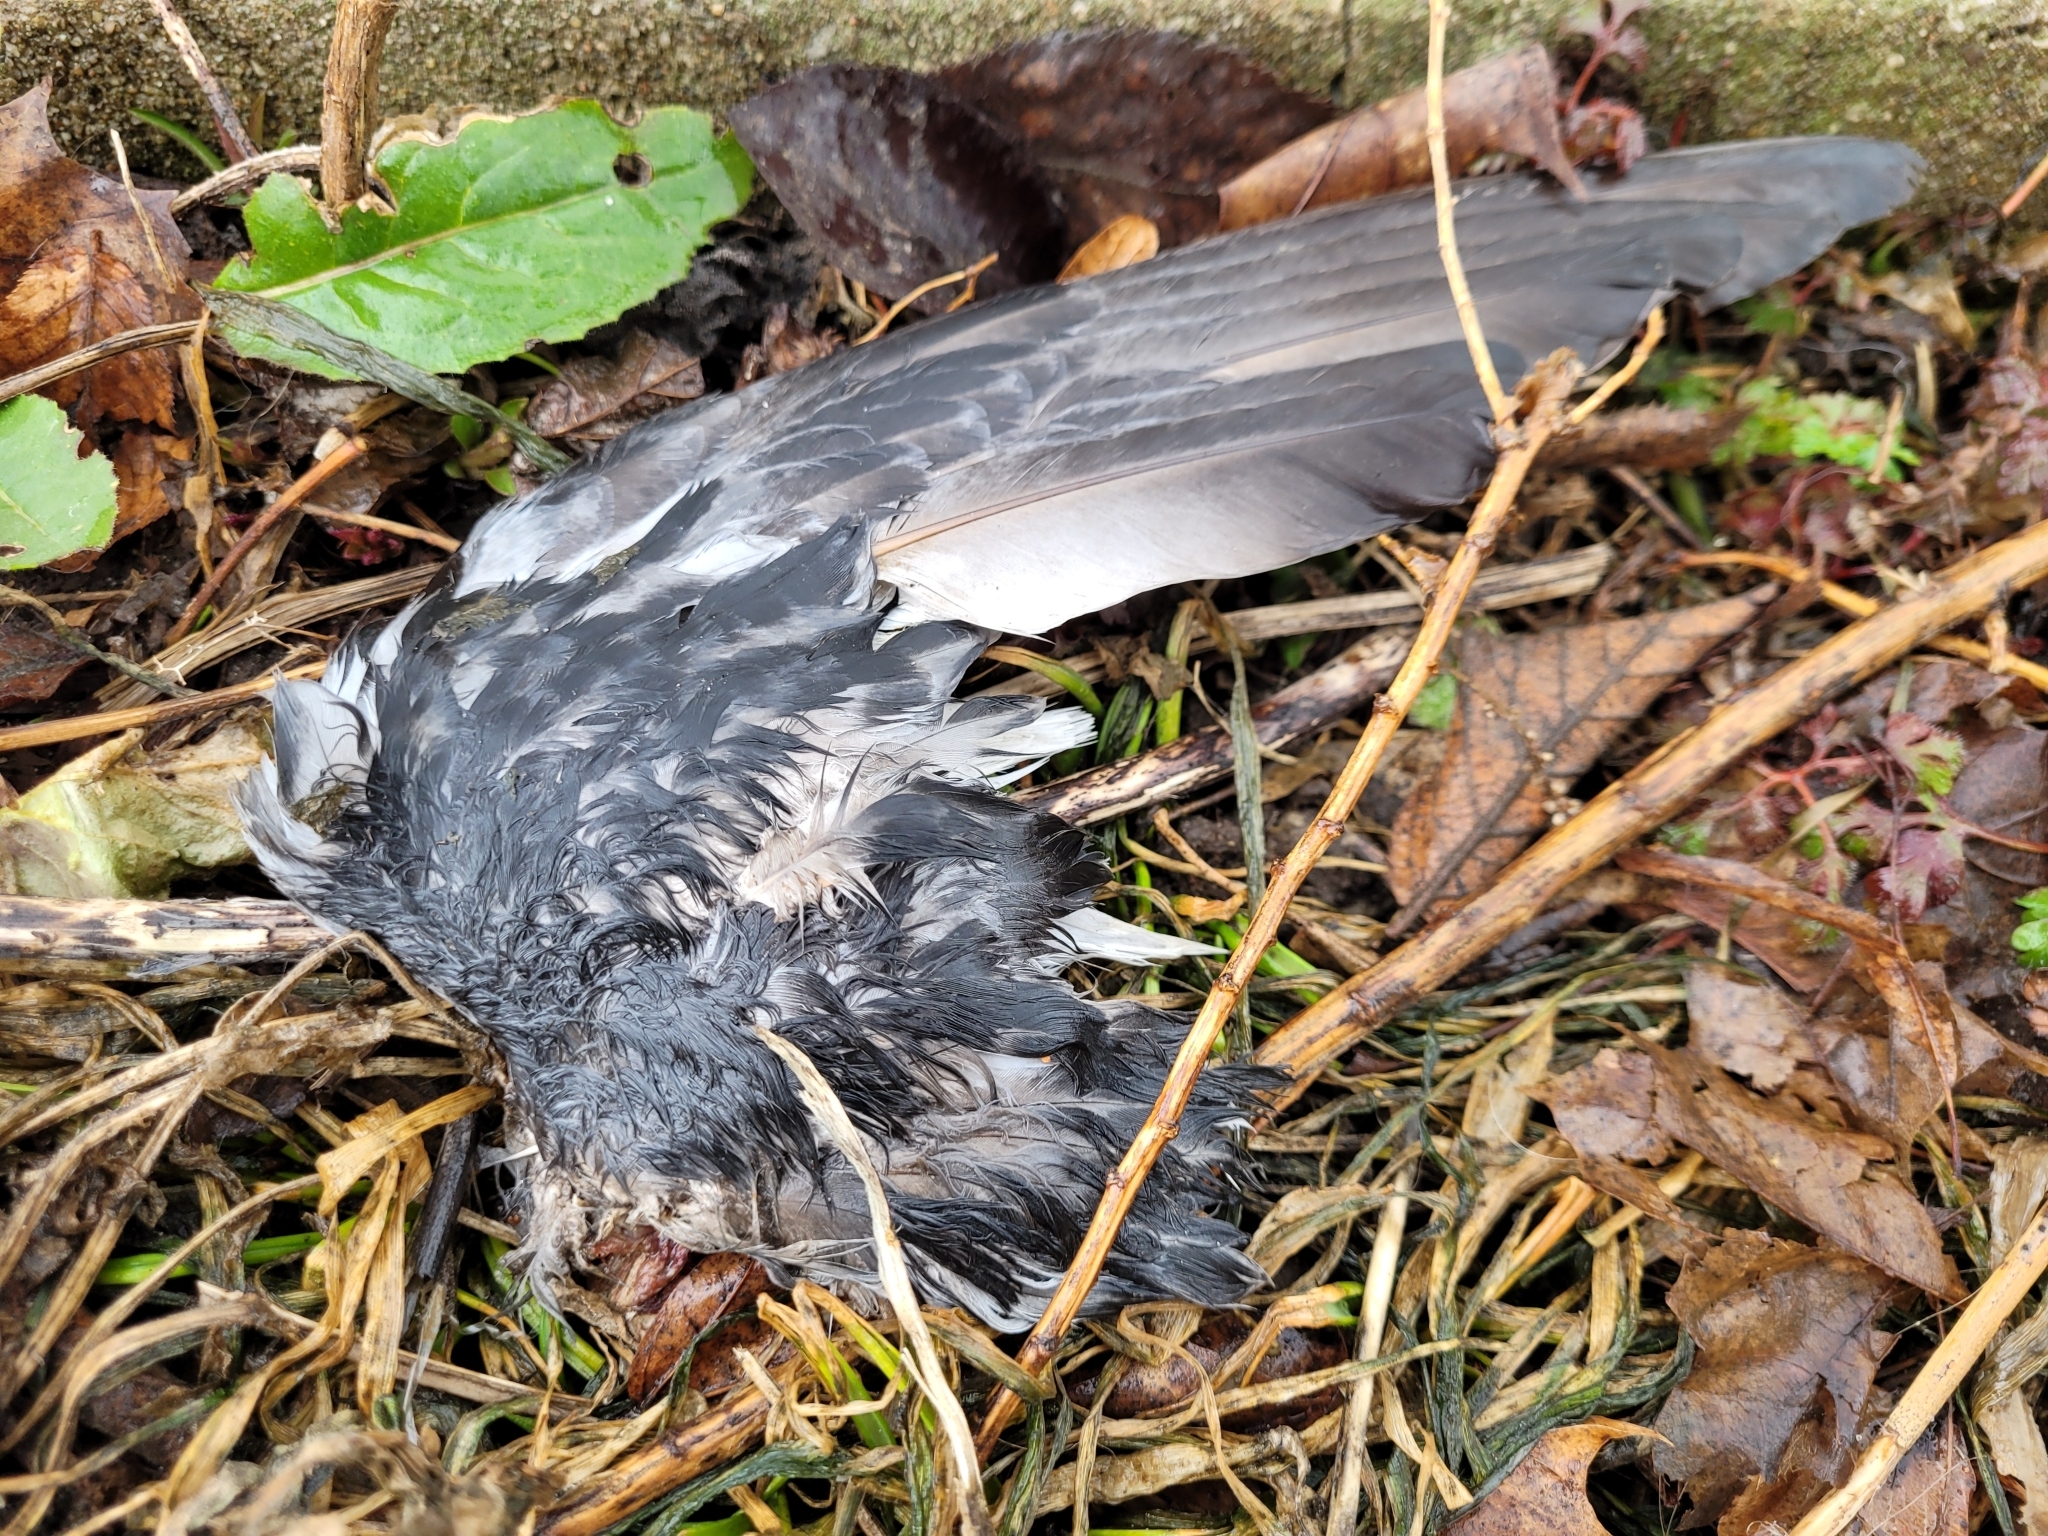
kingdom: Animalia
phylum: Chordata
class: Aves
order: Columbiformes
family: Columbidae
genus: Columba
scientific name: Columba livia
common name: Rock pigeon
